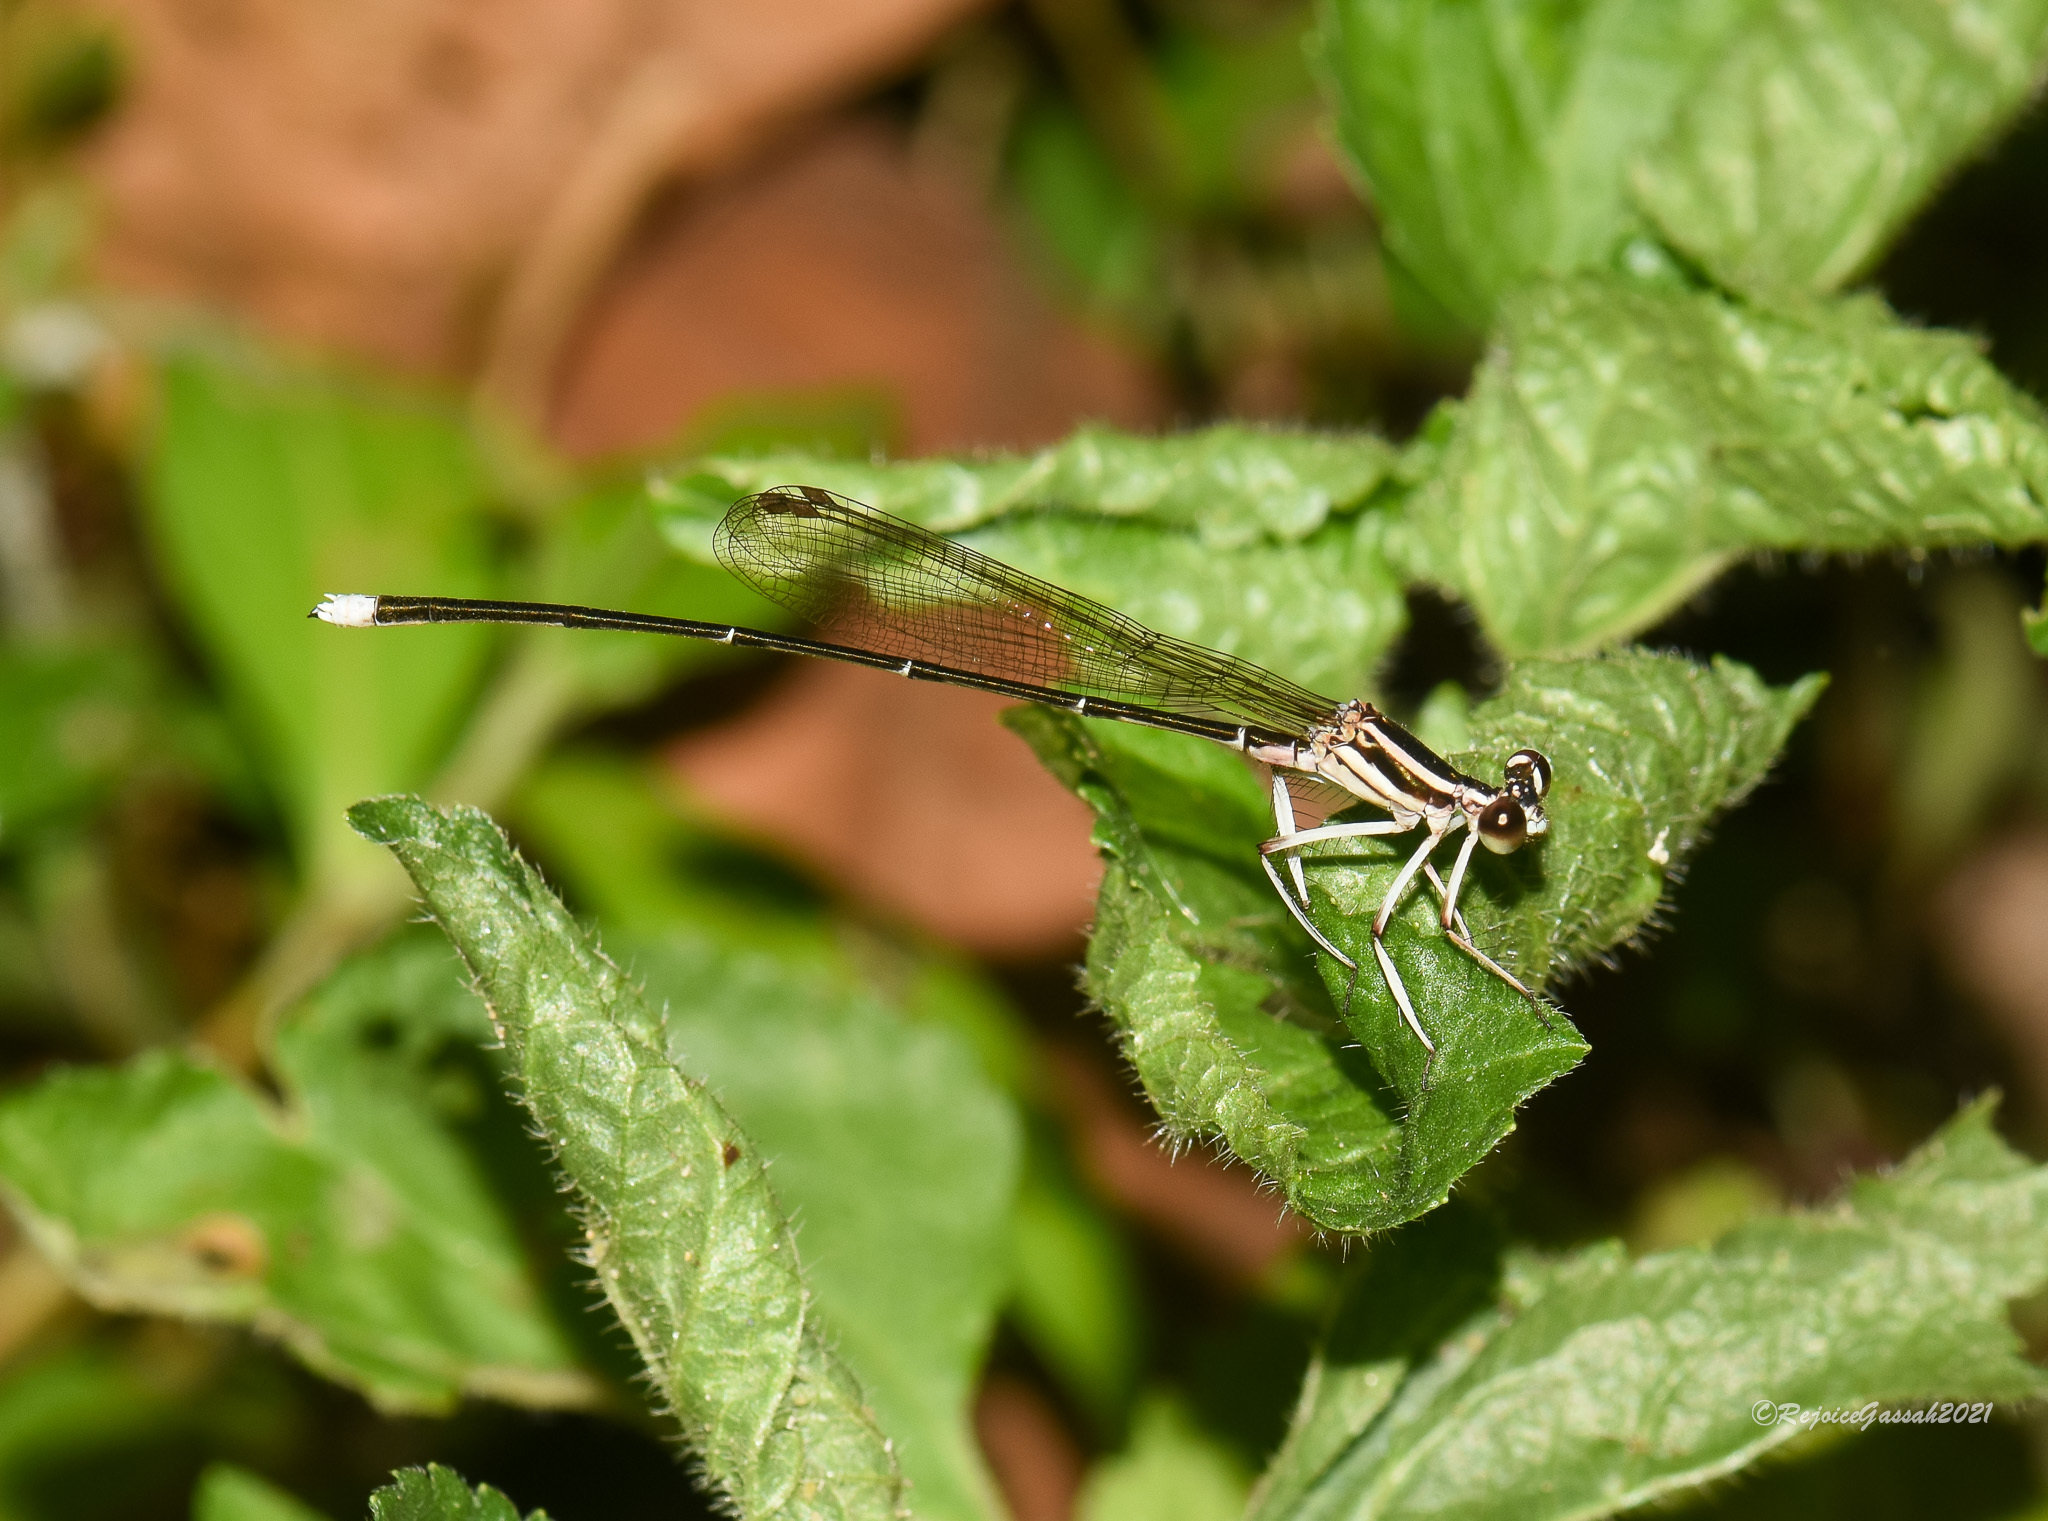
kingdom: Animalia
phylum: Arthropoda
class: Insecta
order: Odonata
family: Platycnemididae
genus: Pseudocopera
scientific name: Pseudocopera ciliata
